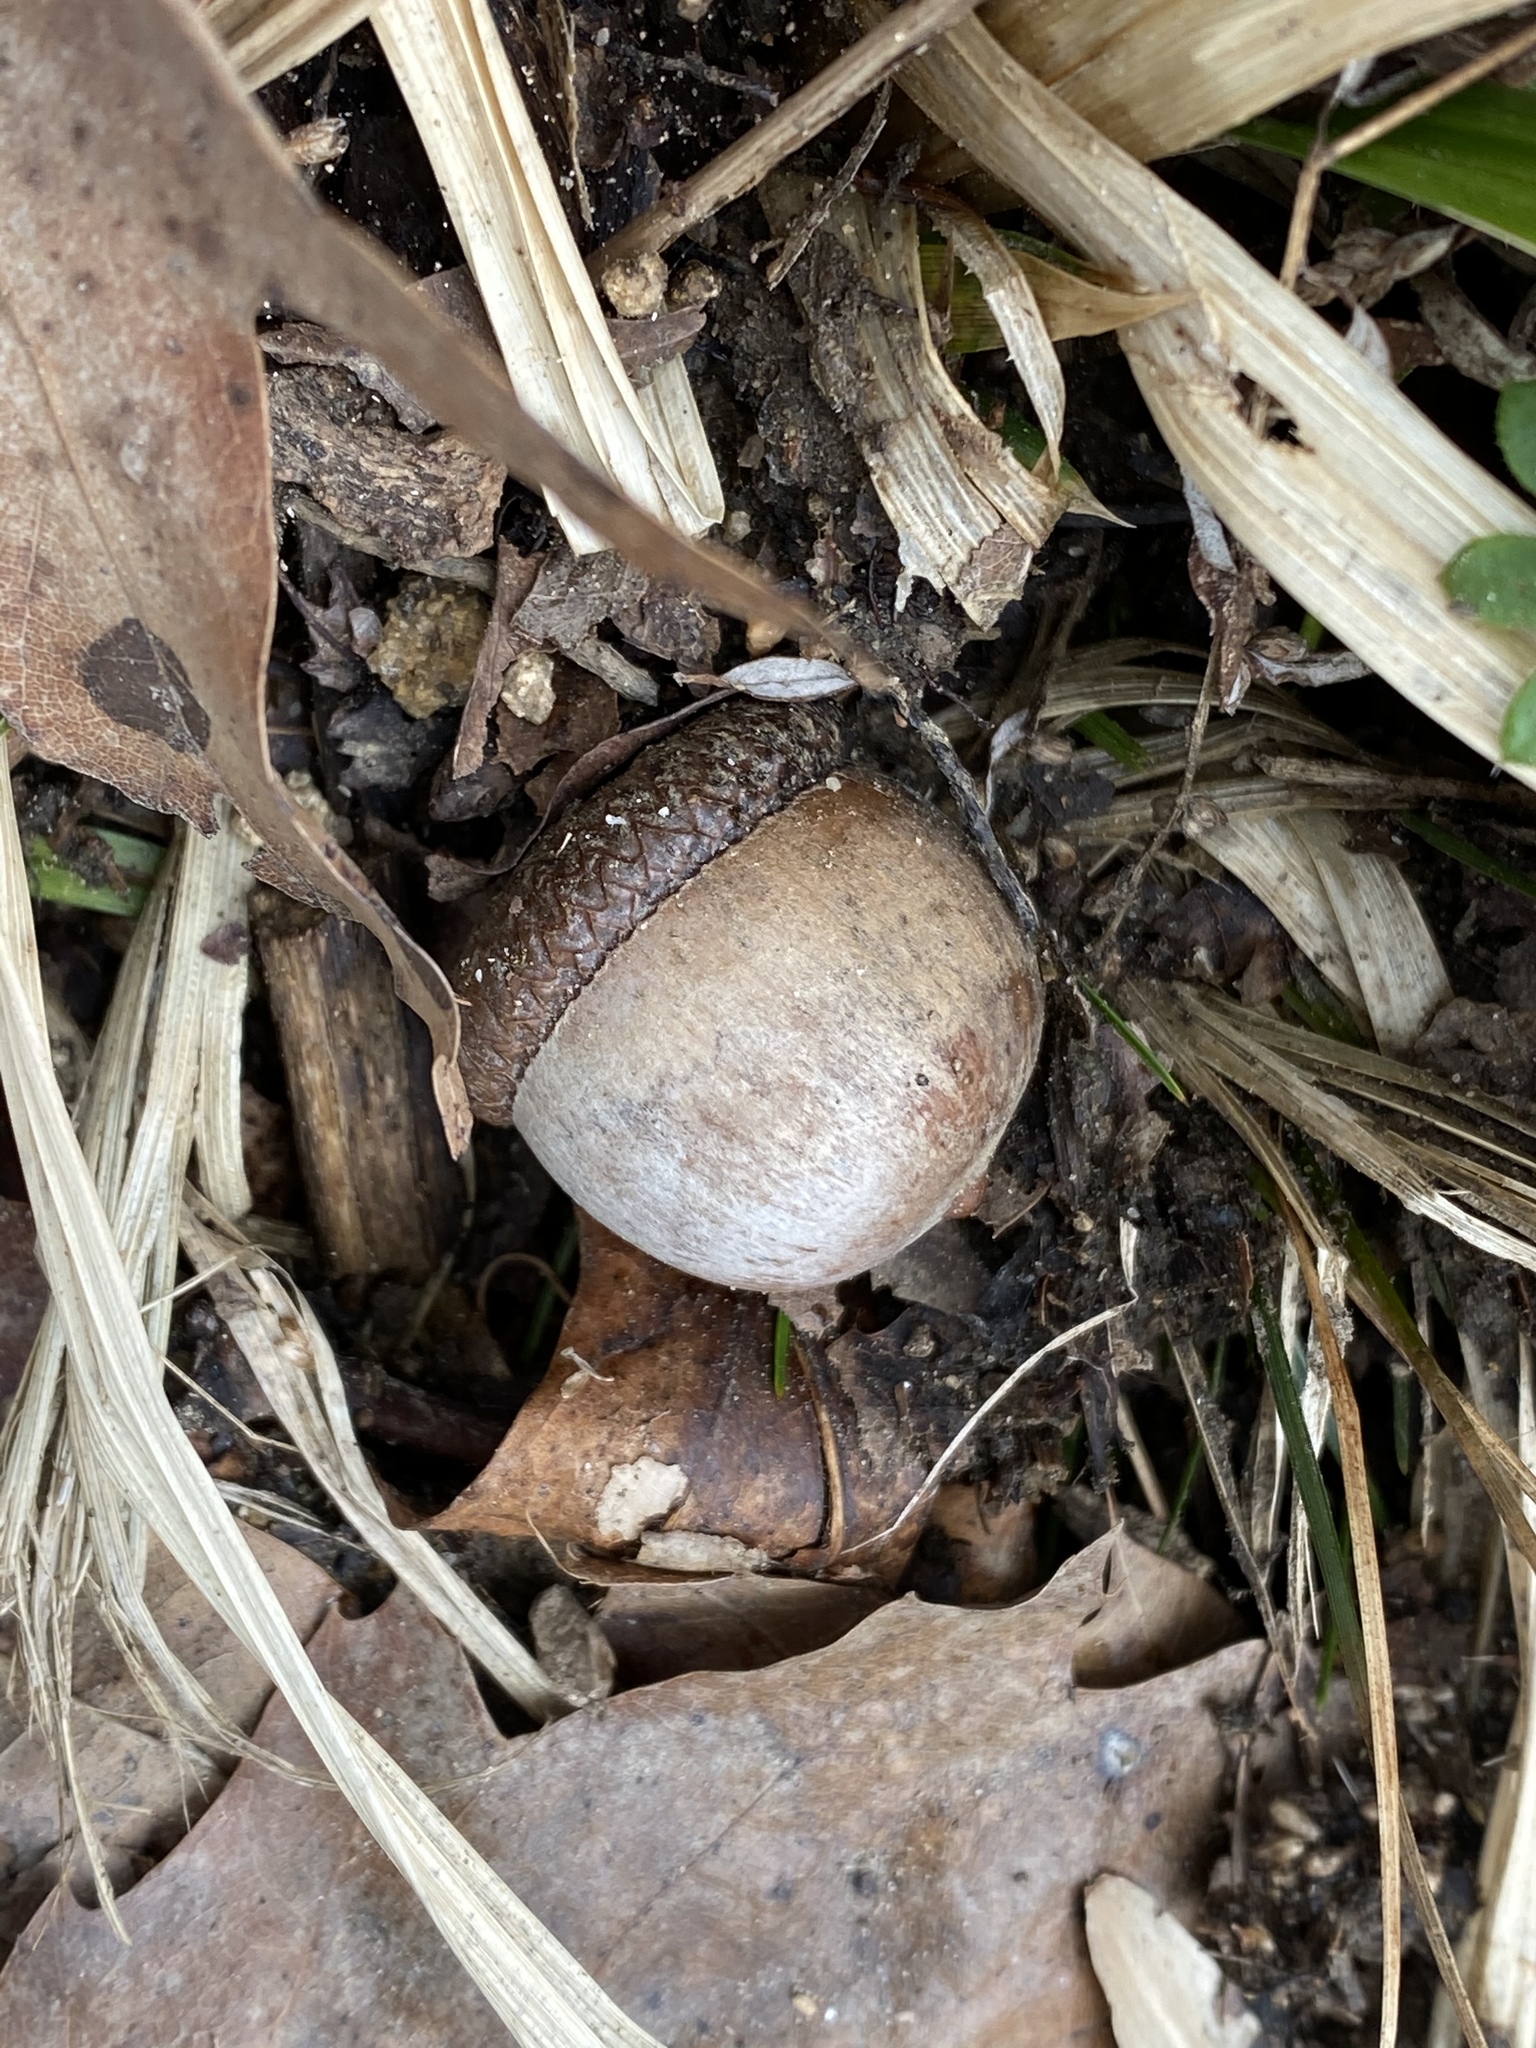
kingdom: Plantae
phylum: Tracheophyta
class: Magnoliopsida
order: Fagales
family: Fagaceae
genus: Quercus
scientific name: Quercus rubra
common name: Red oak
